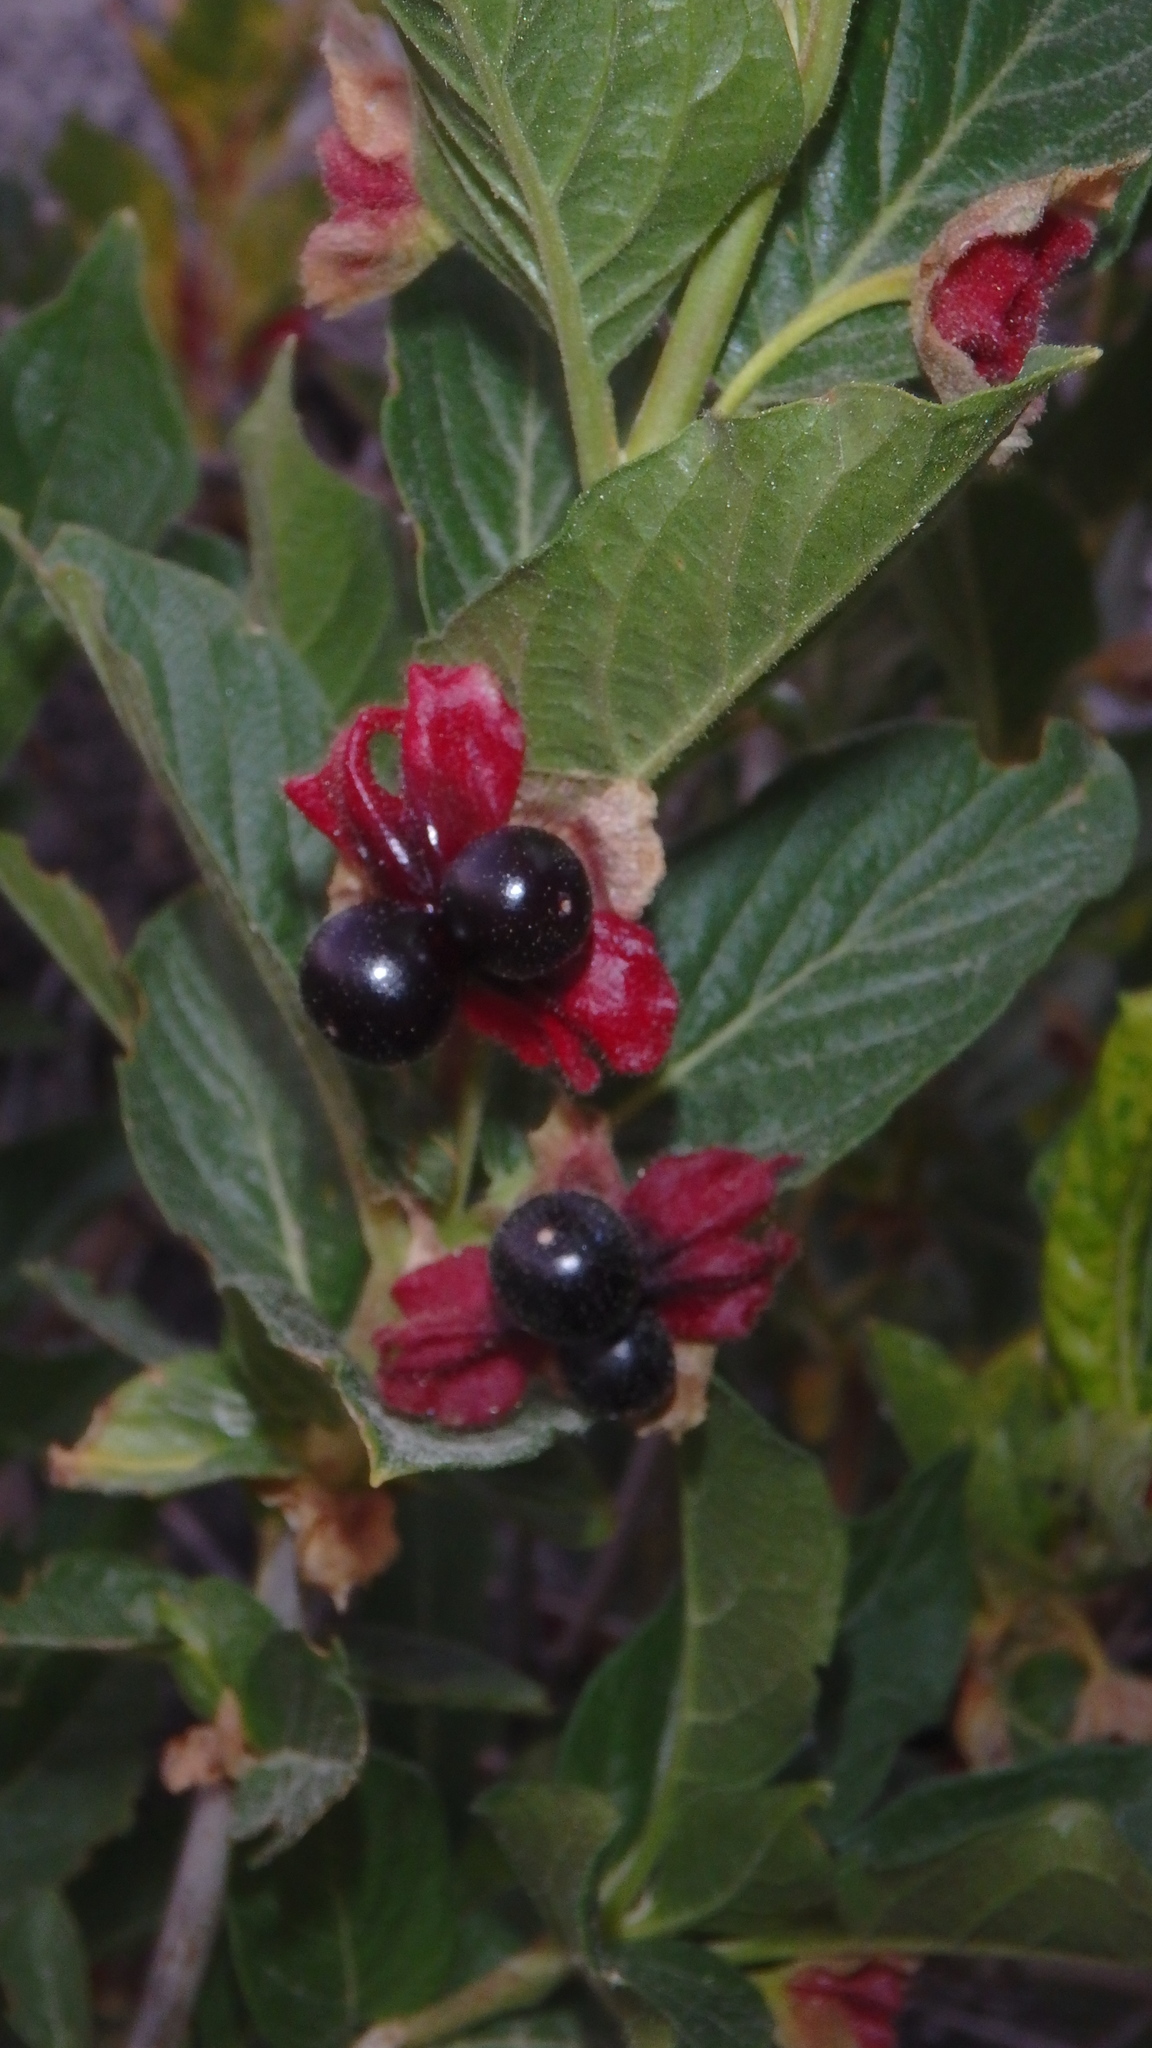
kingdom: Plantae
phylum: Tracheophyta
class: Magnoliopsida
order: Dipsacales
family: Caprifoliaceae
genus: Lonicera
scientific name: Lonicera involucrata
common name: Californian honeysuckle
